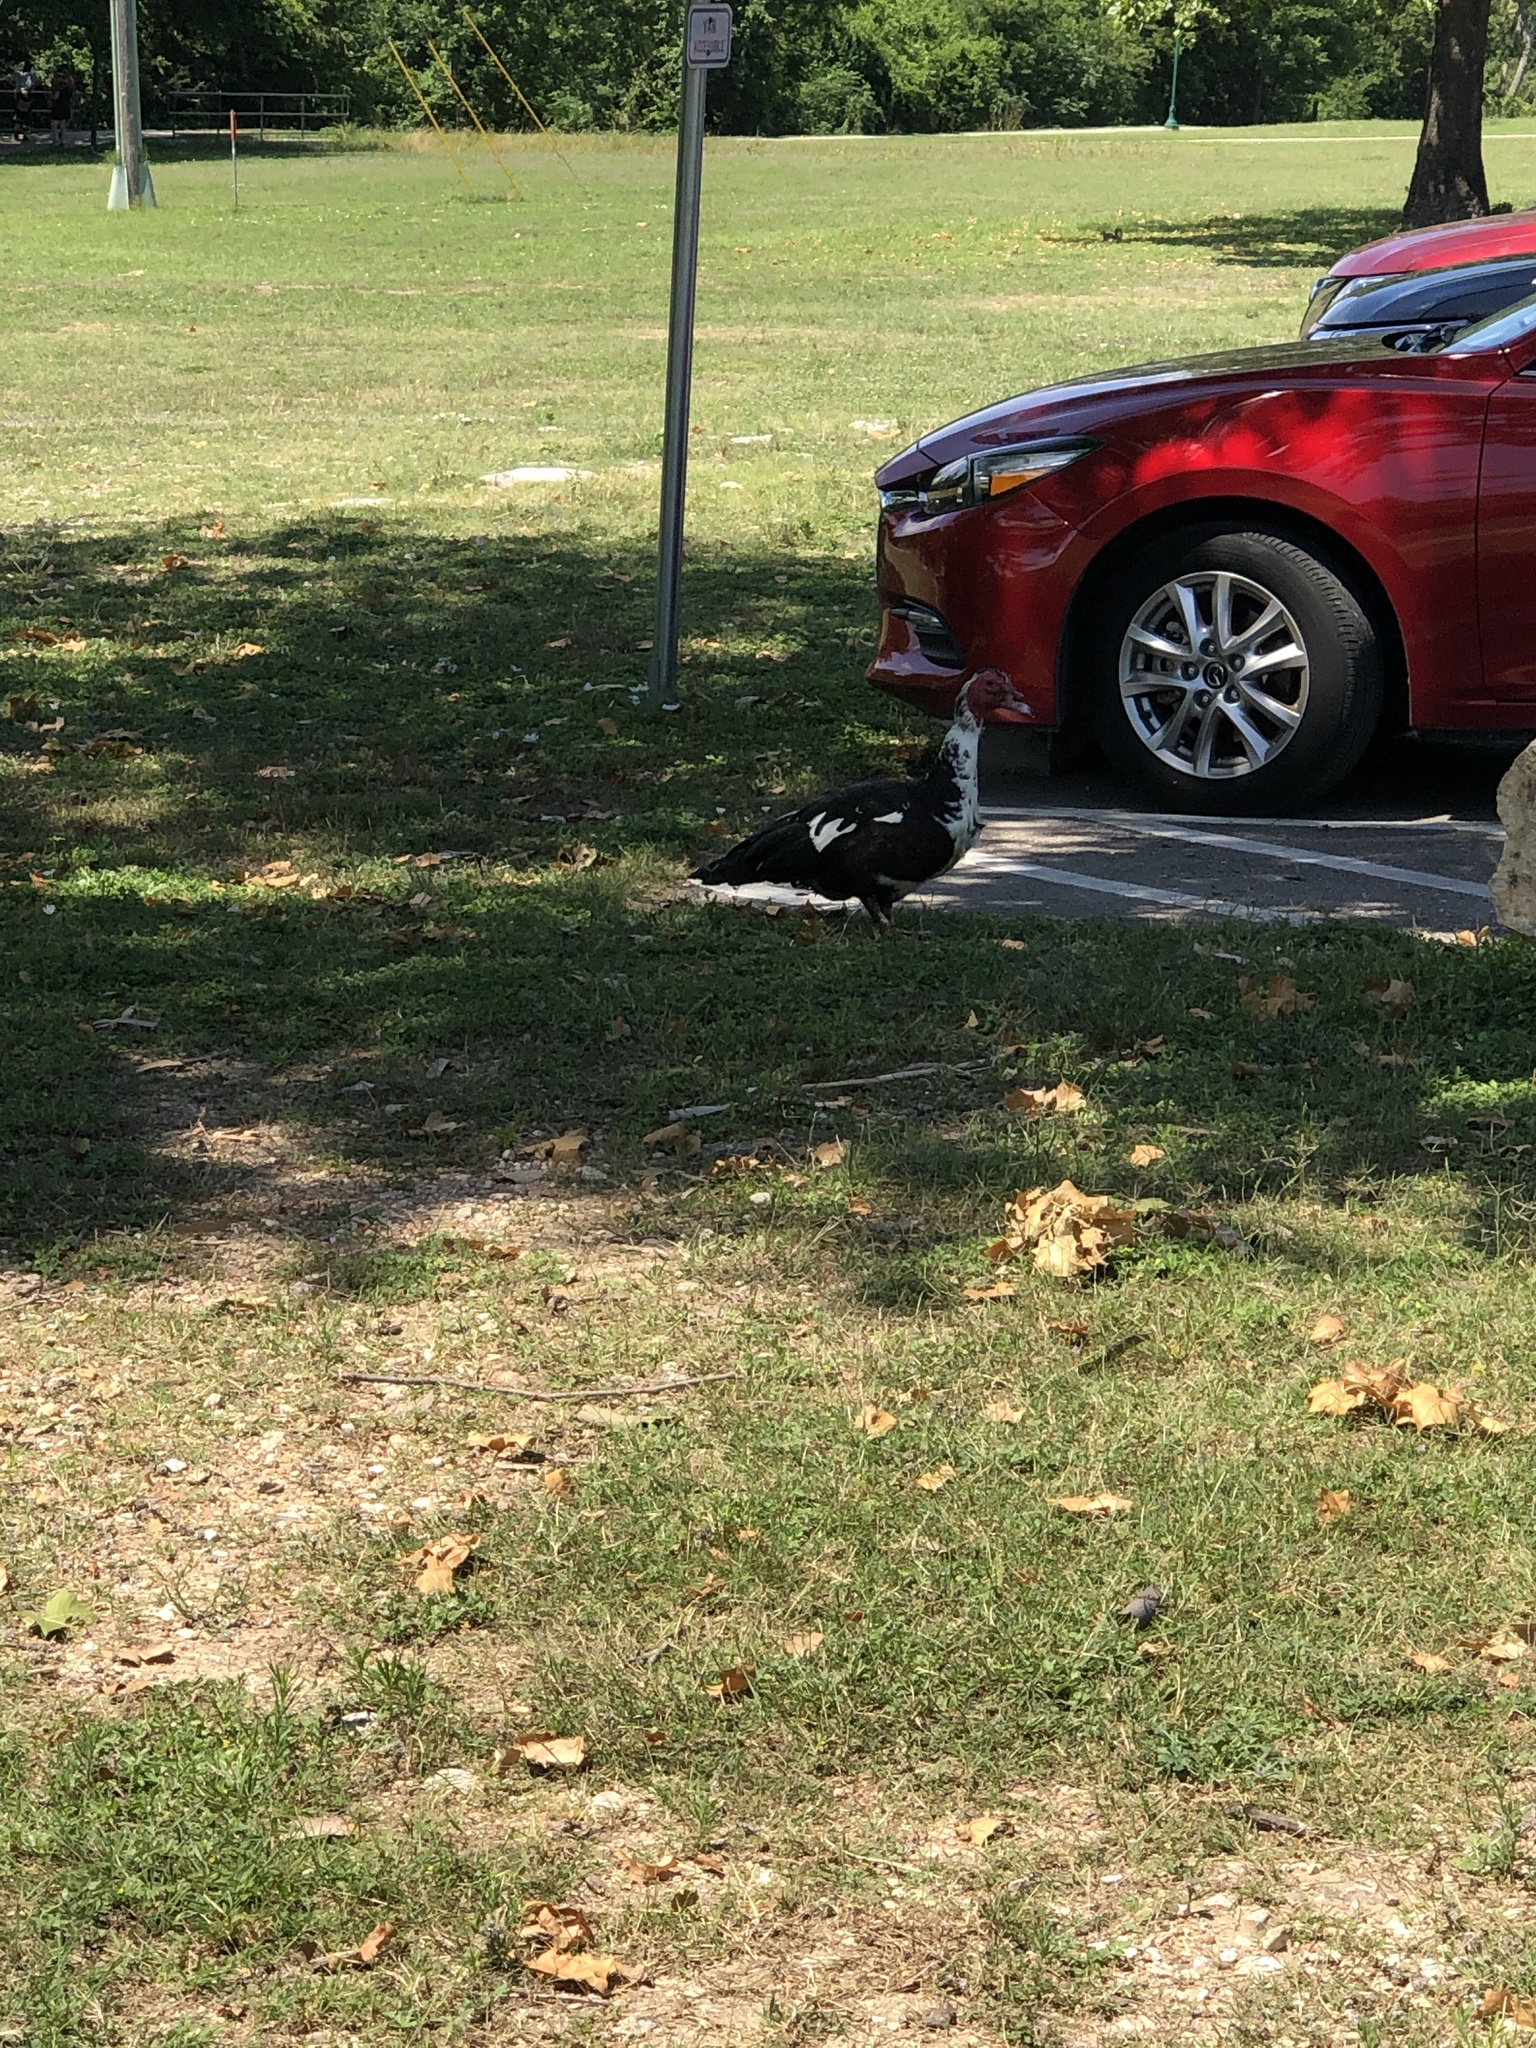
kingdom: Animalia
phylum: Chordata
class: Aves
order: Anseriformes
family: Anatidae
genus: Cairina
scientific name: Cairina moschata
